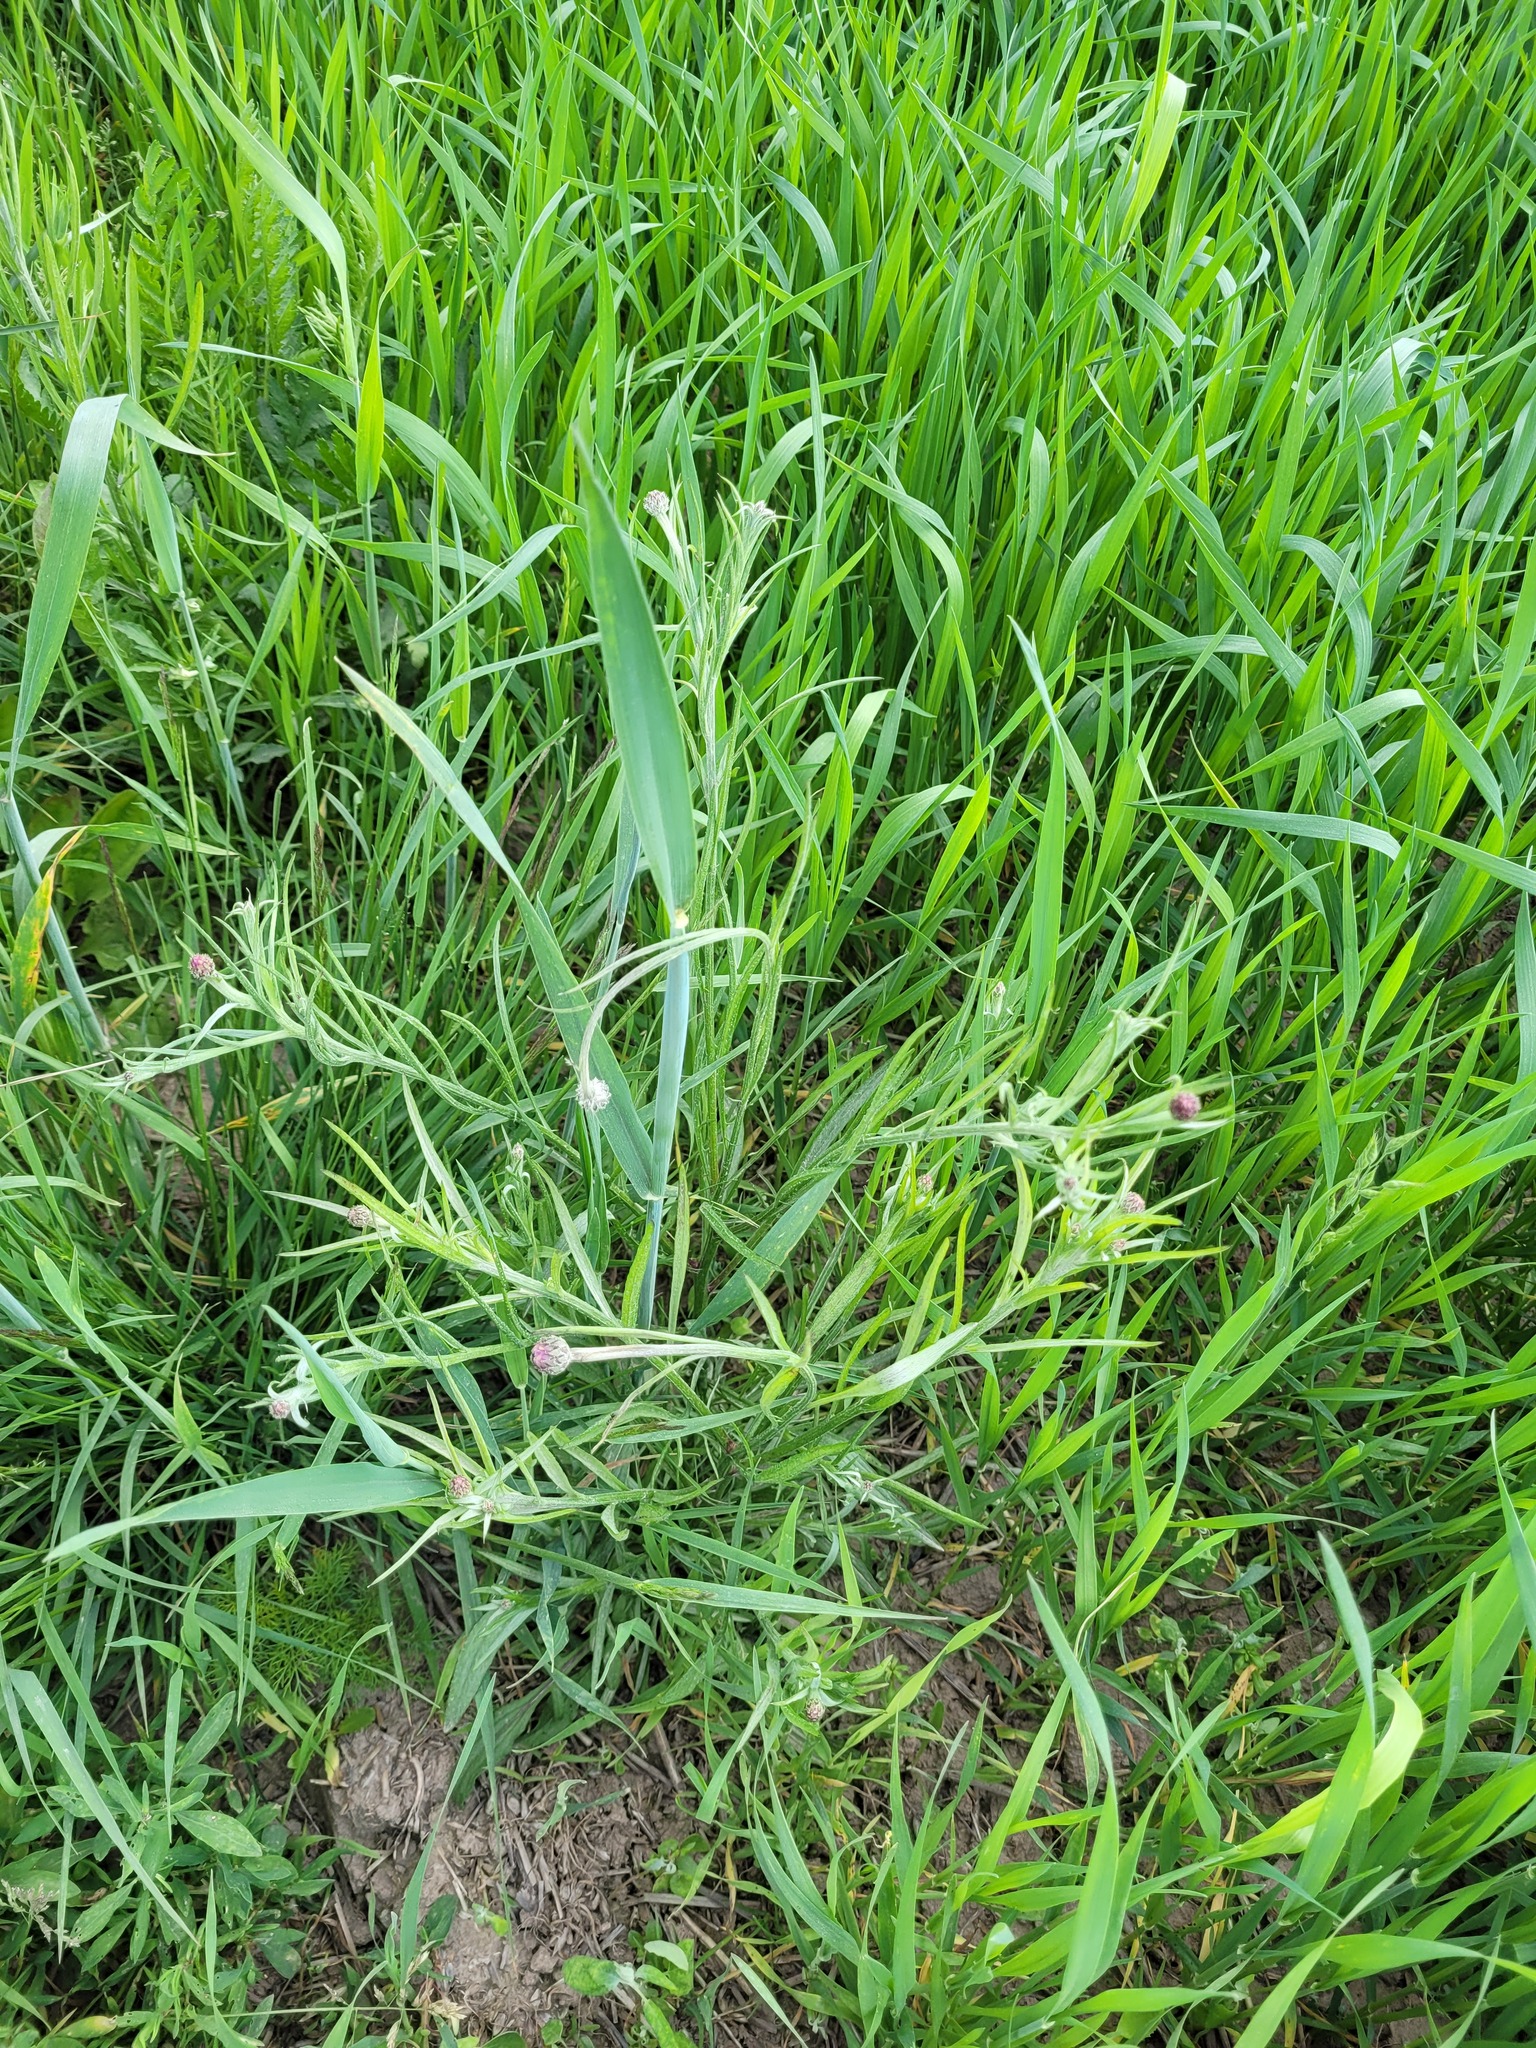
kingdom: Plantae
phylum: Tracheophyta
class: Magnoliopsida
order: Asterales
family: Asteraceae
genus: Centaurea
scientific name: Centaurea cyanus
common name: Cornflower
